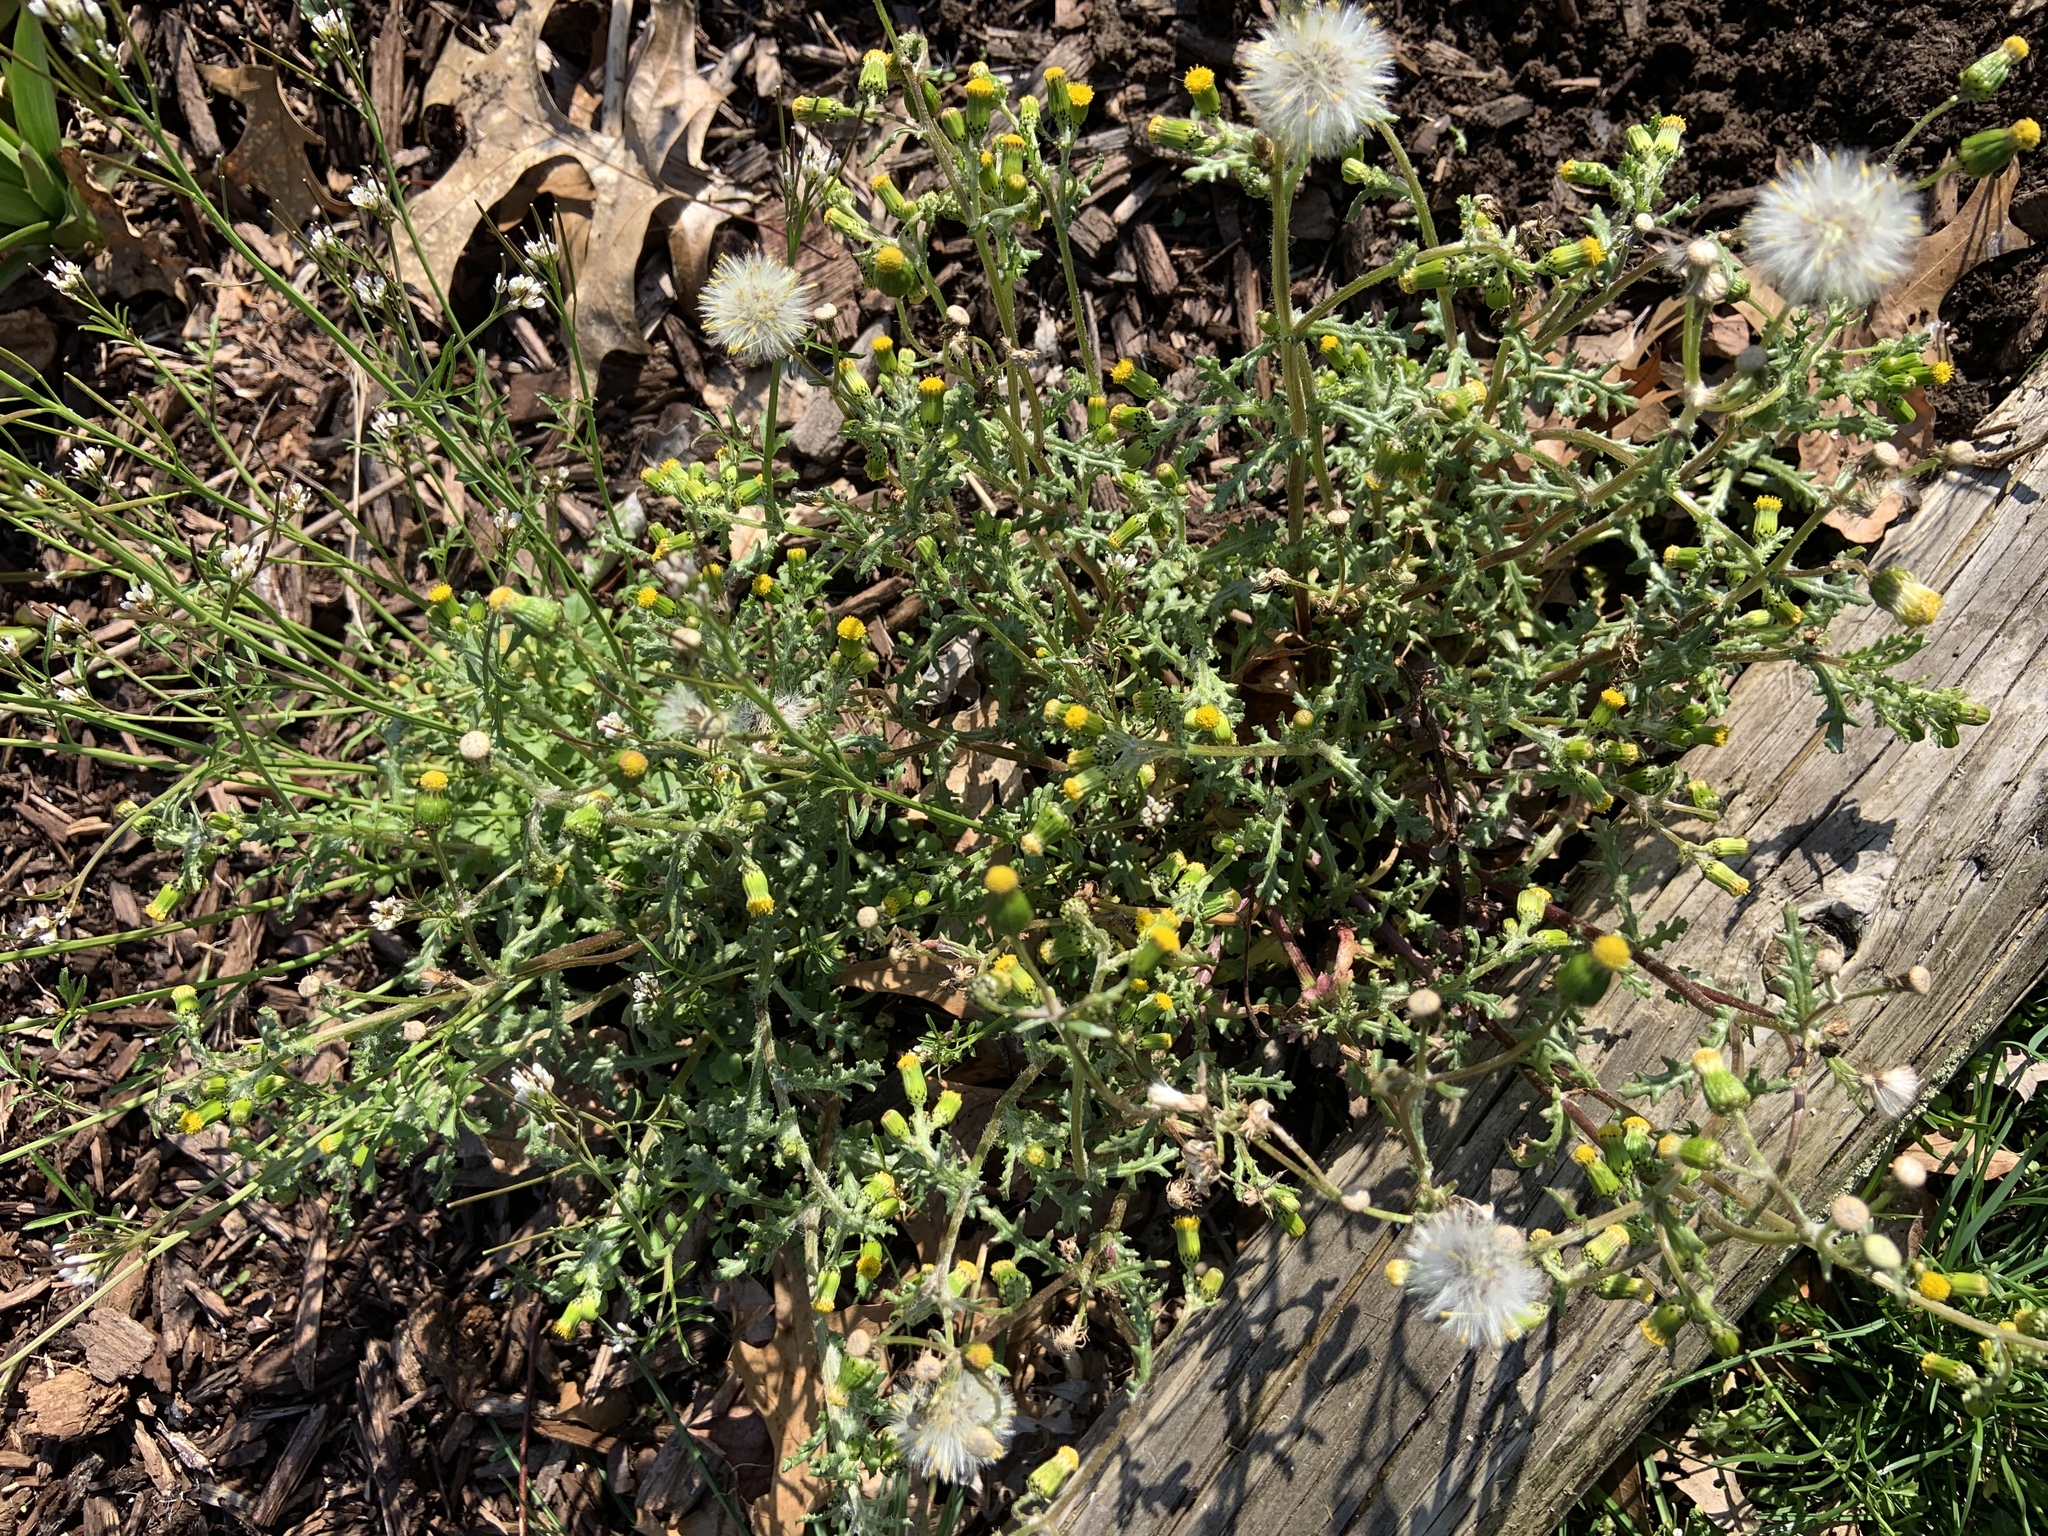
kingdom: Plantae
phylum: Tracheophyta
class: Magnoliopsida
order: Asterales
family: Asteraceae
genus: Senecio
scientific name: Senecio vulgaris
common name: Old-man-in-the-spring
